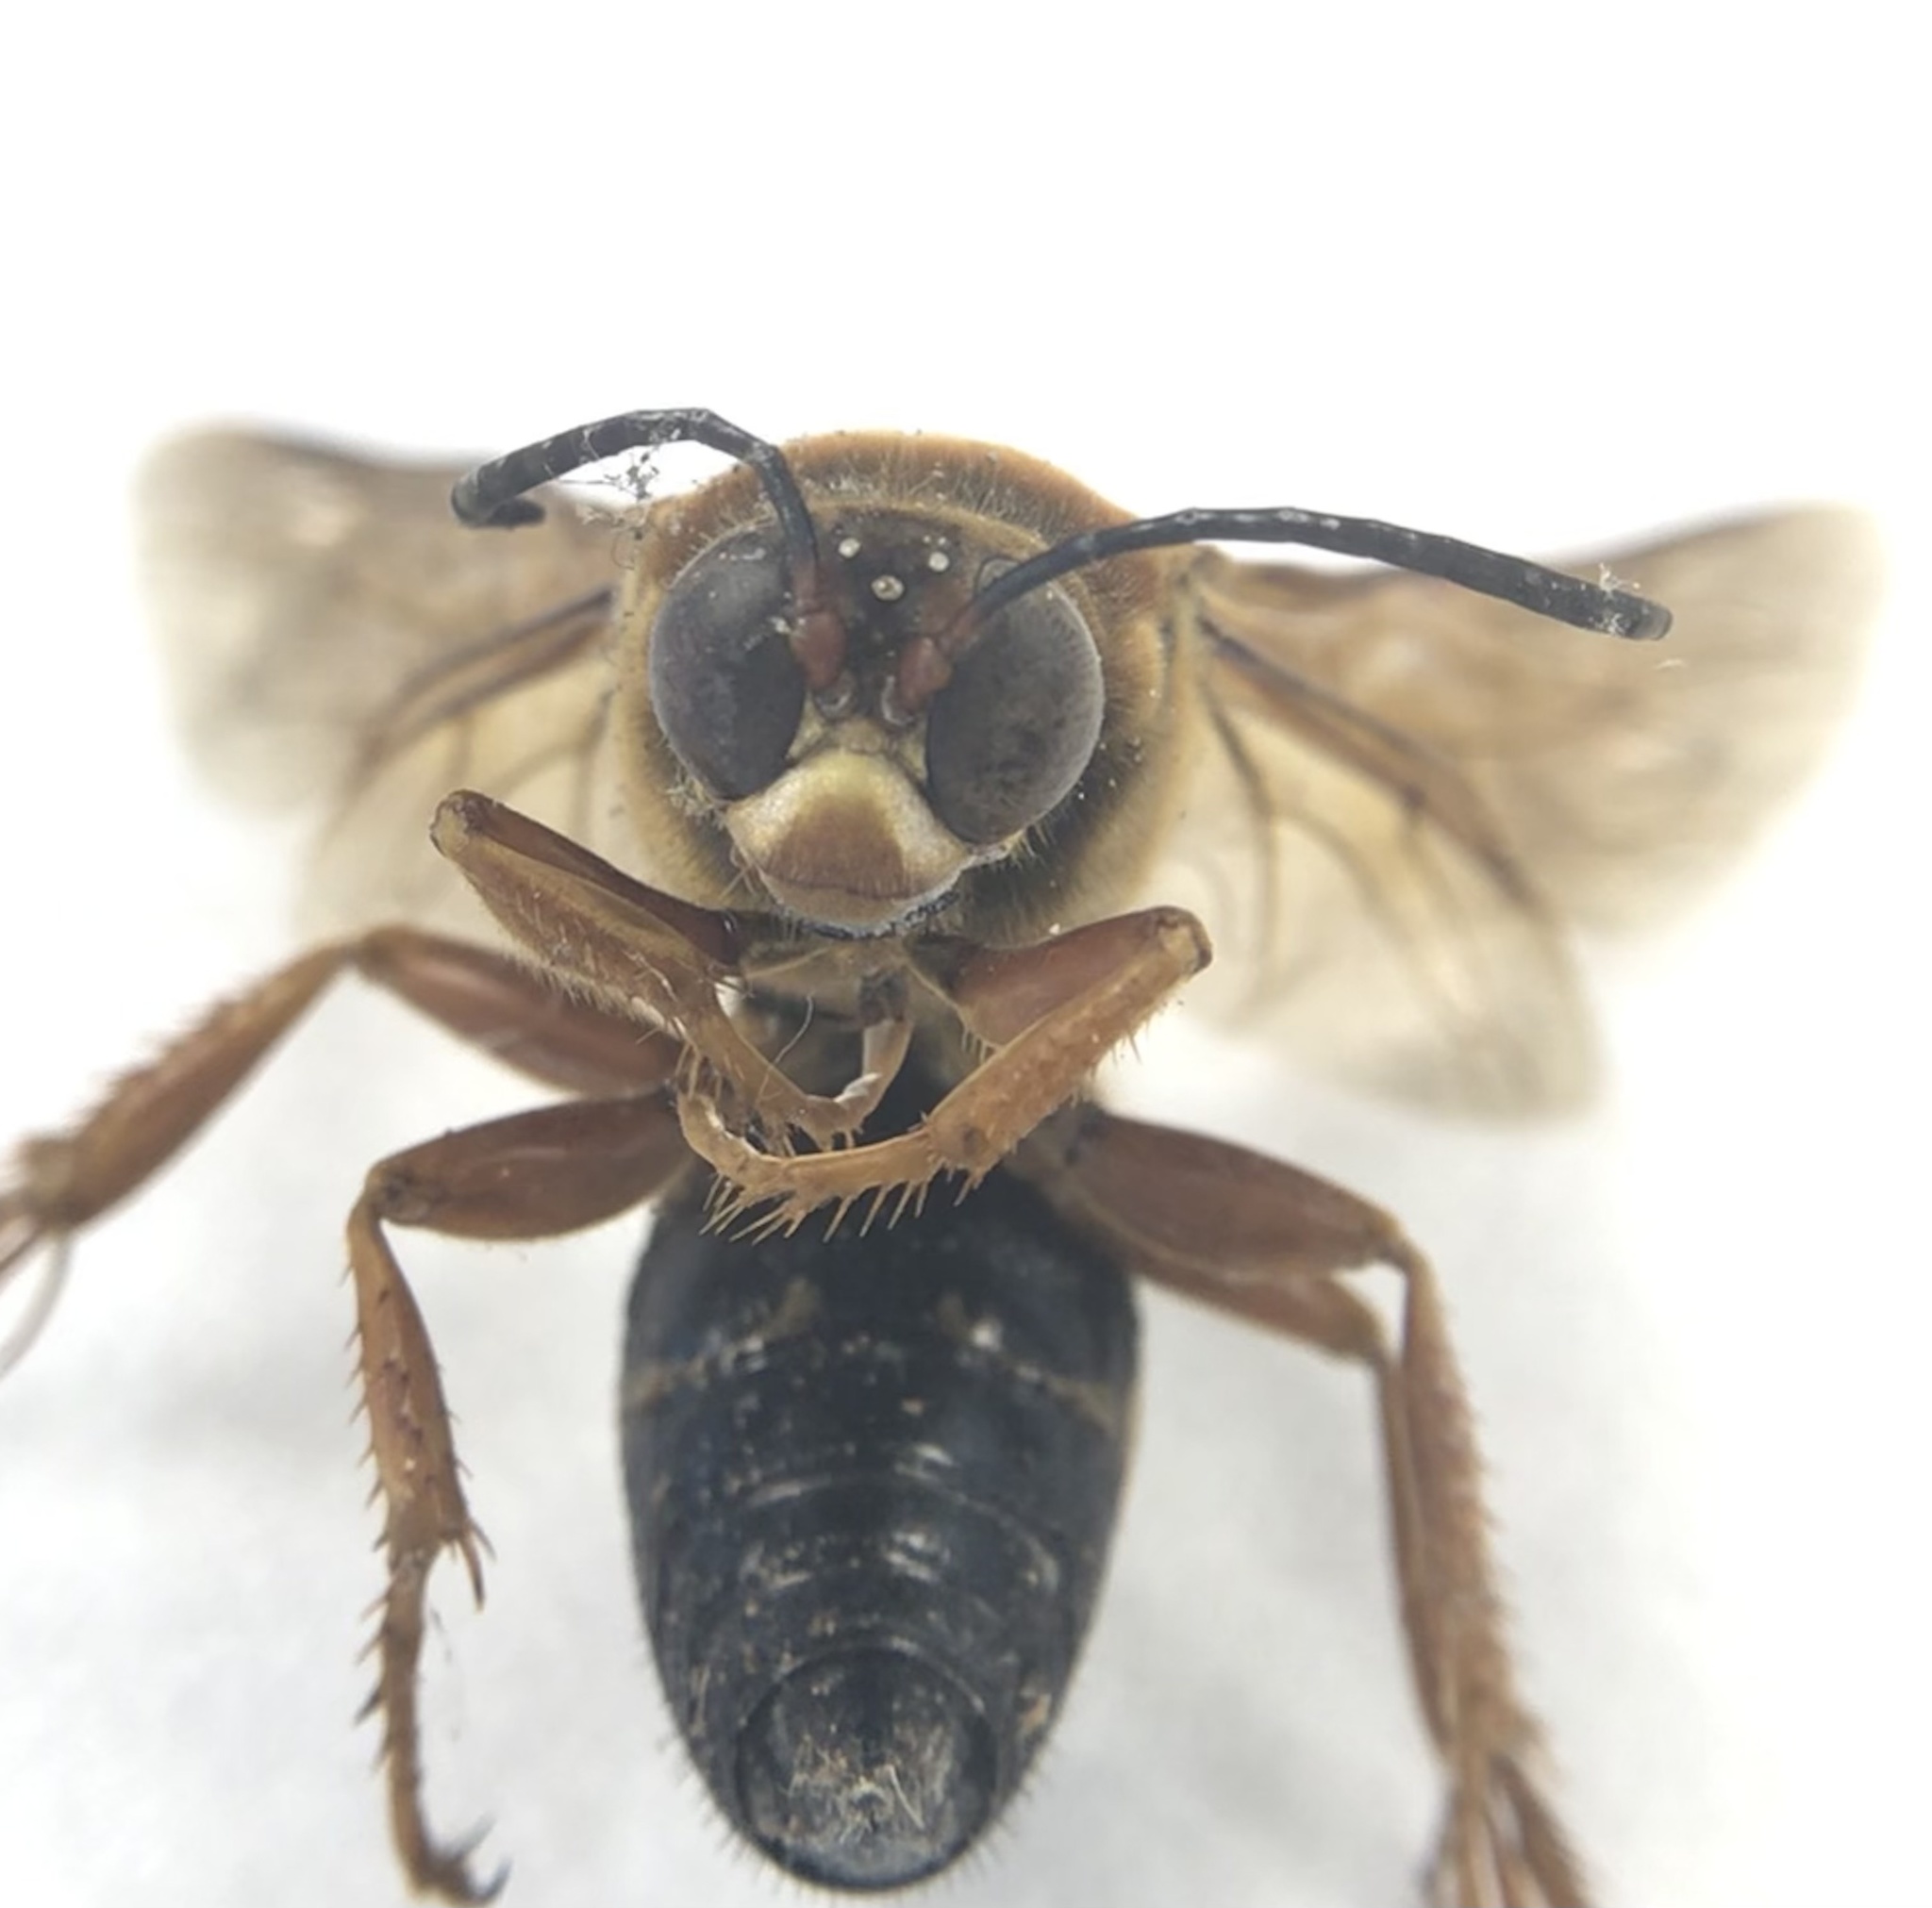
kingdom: Animalia
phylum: Arthropoda
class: Insecta
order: Hymenoptera
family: Crabronidae
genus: Sphecius
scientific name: Sphecius speciosus
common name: Cicada killer
